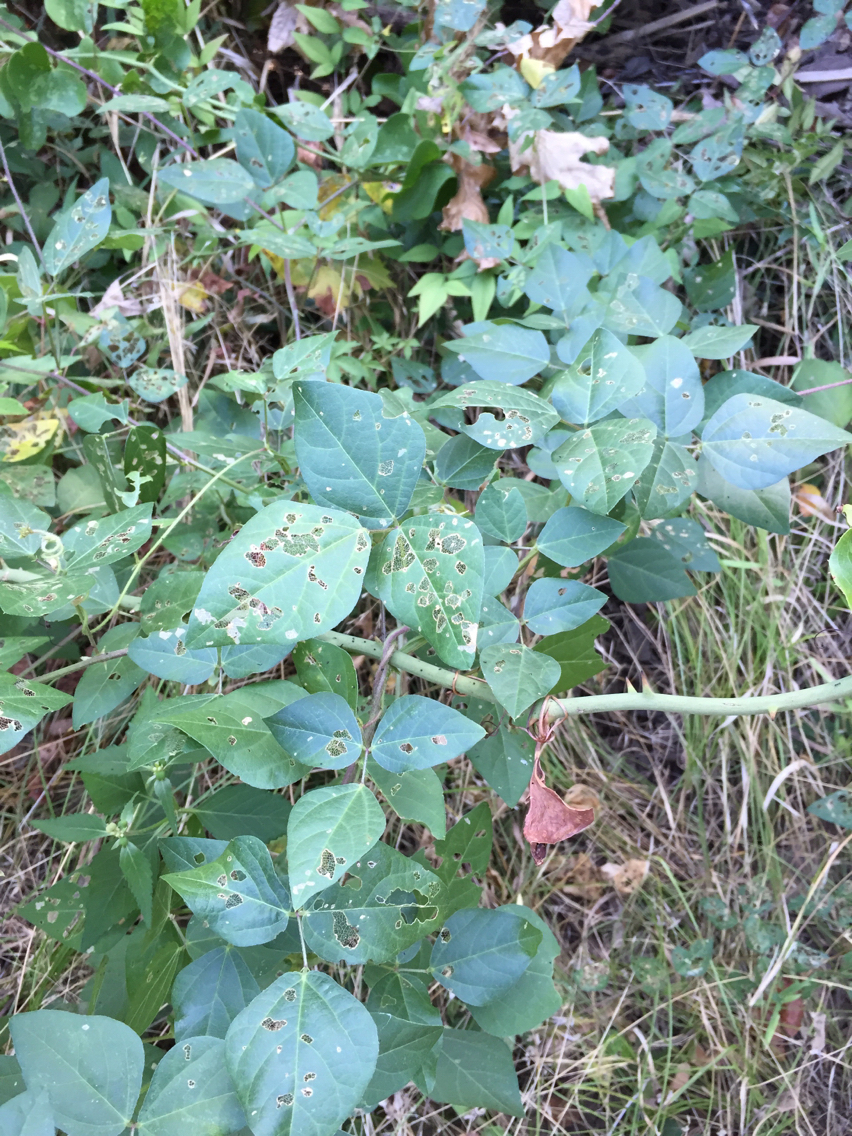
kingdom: Plantae
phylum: Tracheophyta
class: Magnoliopsida
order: Fabales
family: Fabaceae
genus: Strophostyles
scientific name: Strophostyles helvola
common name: Trailing wild bean
